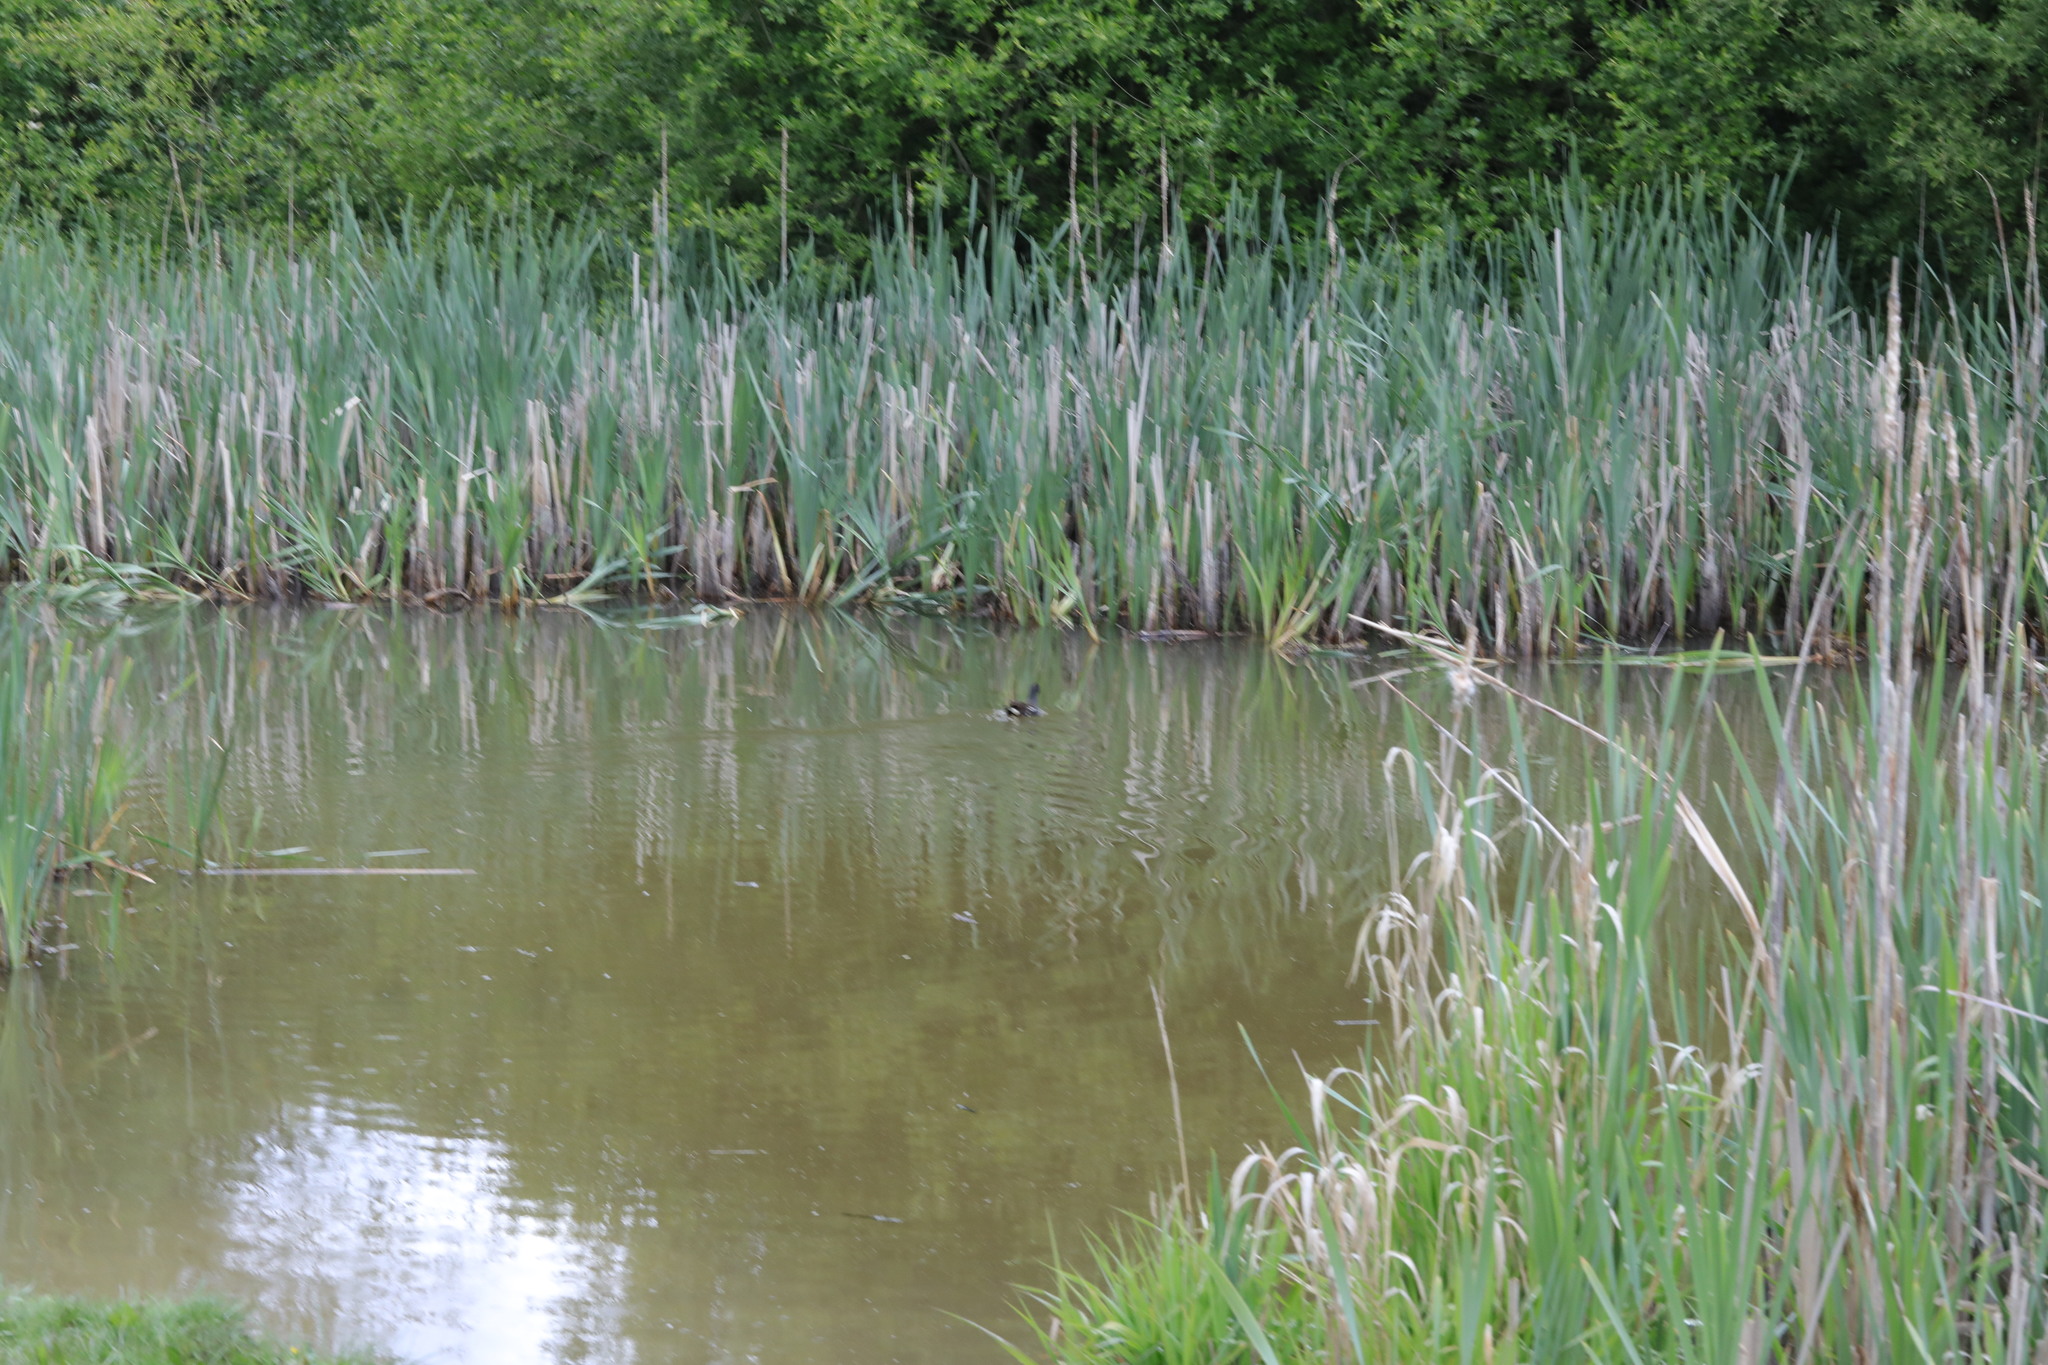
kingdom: Animalia
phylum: Chordata
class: Aves
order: Gruiformes
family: Rallidae
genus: Gallinula
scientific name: Gallinula chloropus
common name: Common moorhen
